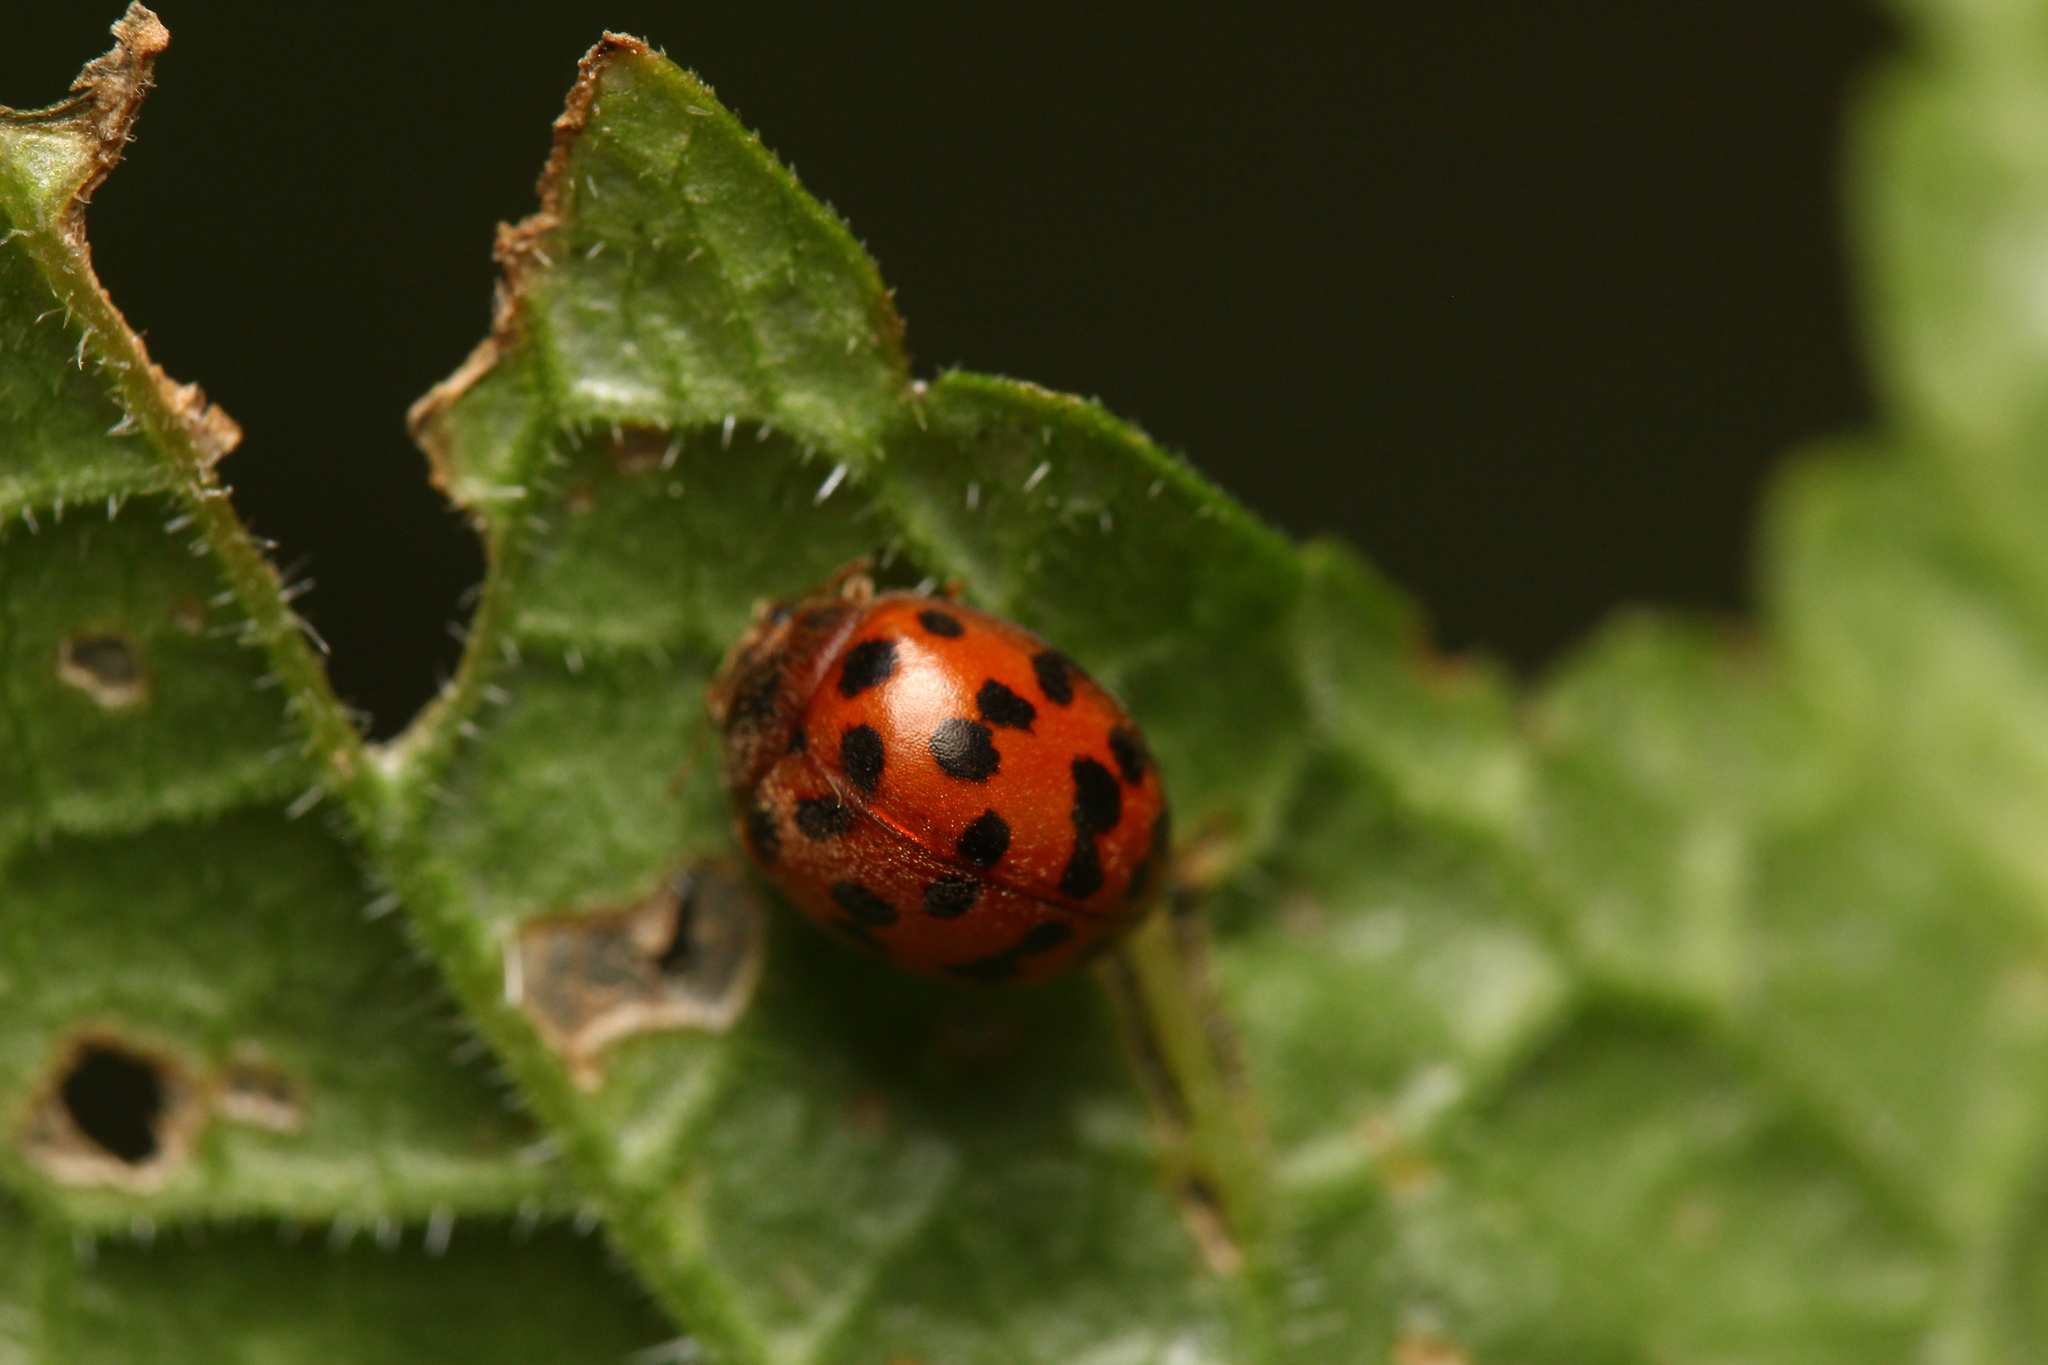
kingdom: Animalia
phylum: Arthropoda
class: Insecta
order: Coleoptera
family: Coccinellidae
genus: Subcoccinella
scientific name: Subcoccinella vigintiquatuorpunctata
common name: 24-spot ladybird
